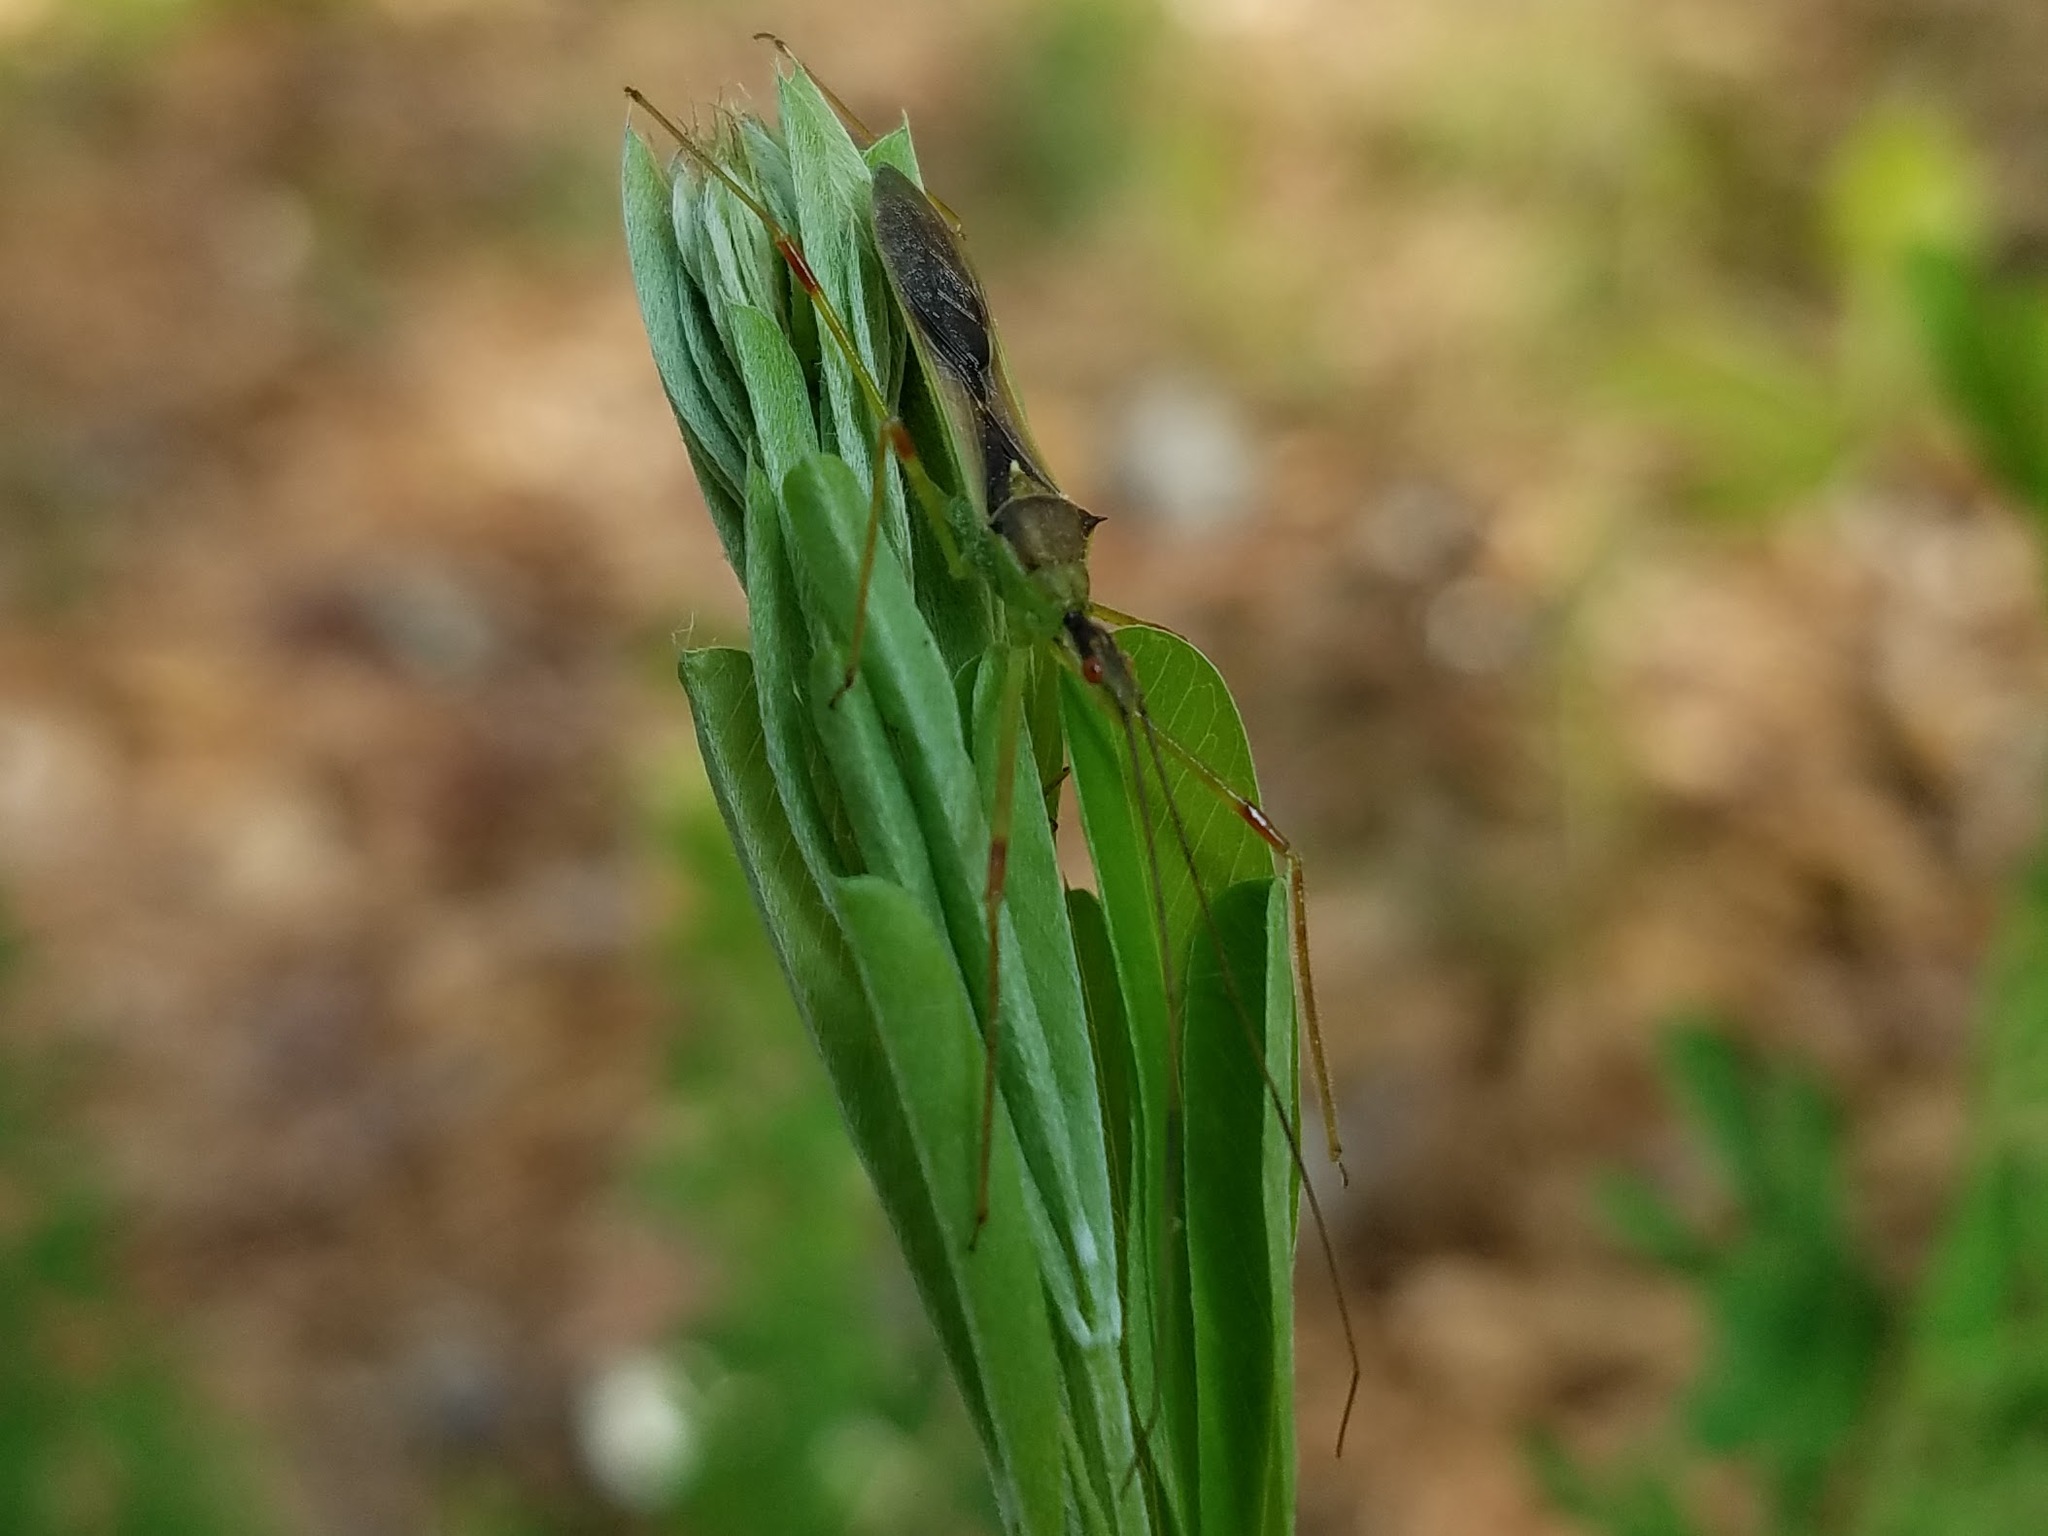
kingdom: Animalia
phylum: Arthropoda
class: Insecta
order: Hemiptera
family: Reduviidae
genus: Zelus
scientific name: Zelus luridus
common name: Pale green assassin bug
